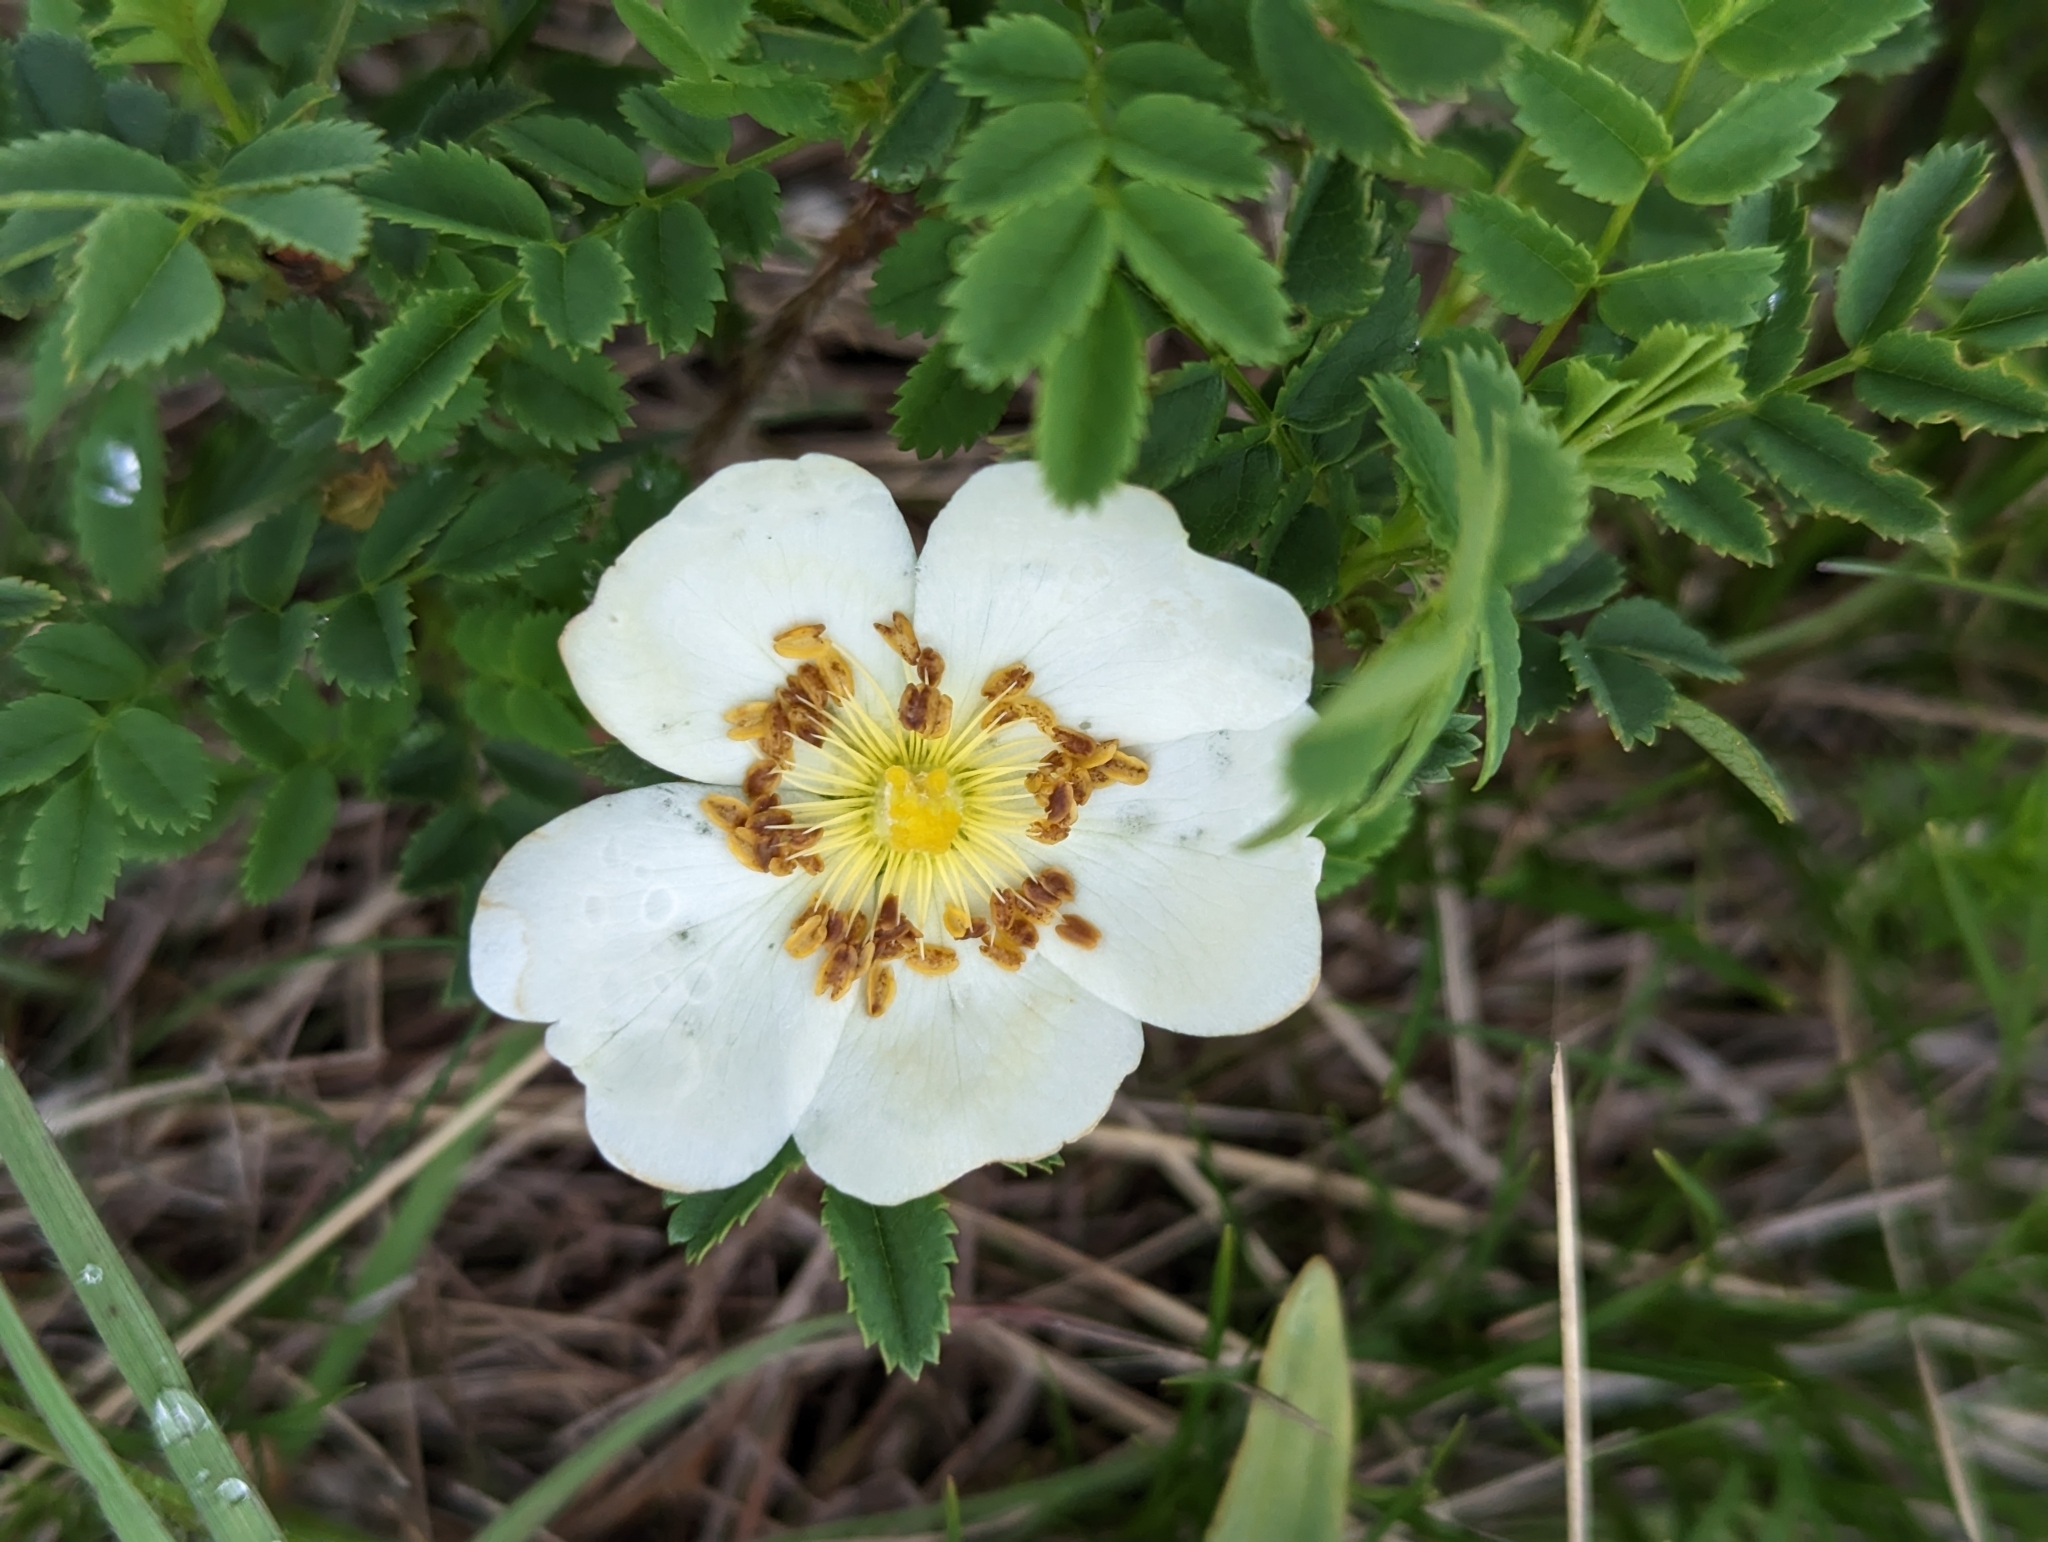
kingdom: Plantae
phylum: Tracheophyta
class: Magnoliopsida
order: Rosales
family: Rosaceae
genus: Rosa
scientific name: Rosa spinosissima
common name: Burnet rose
